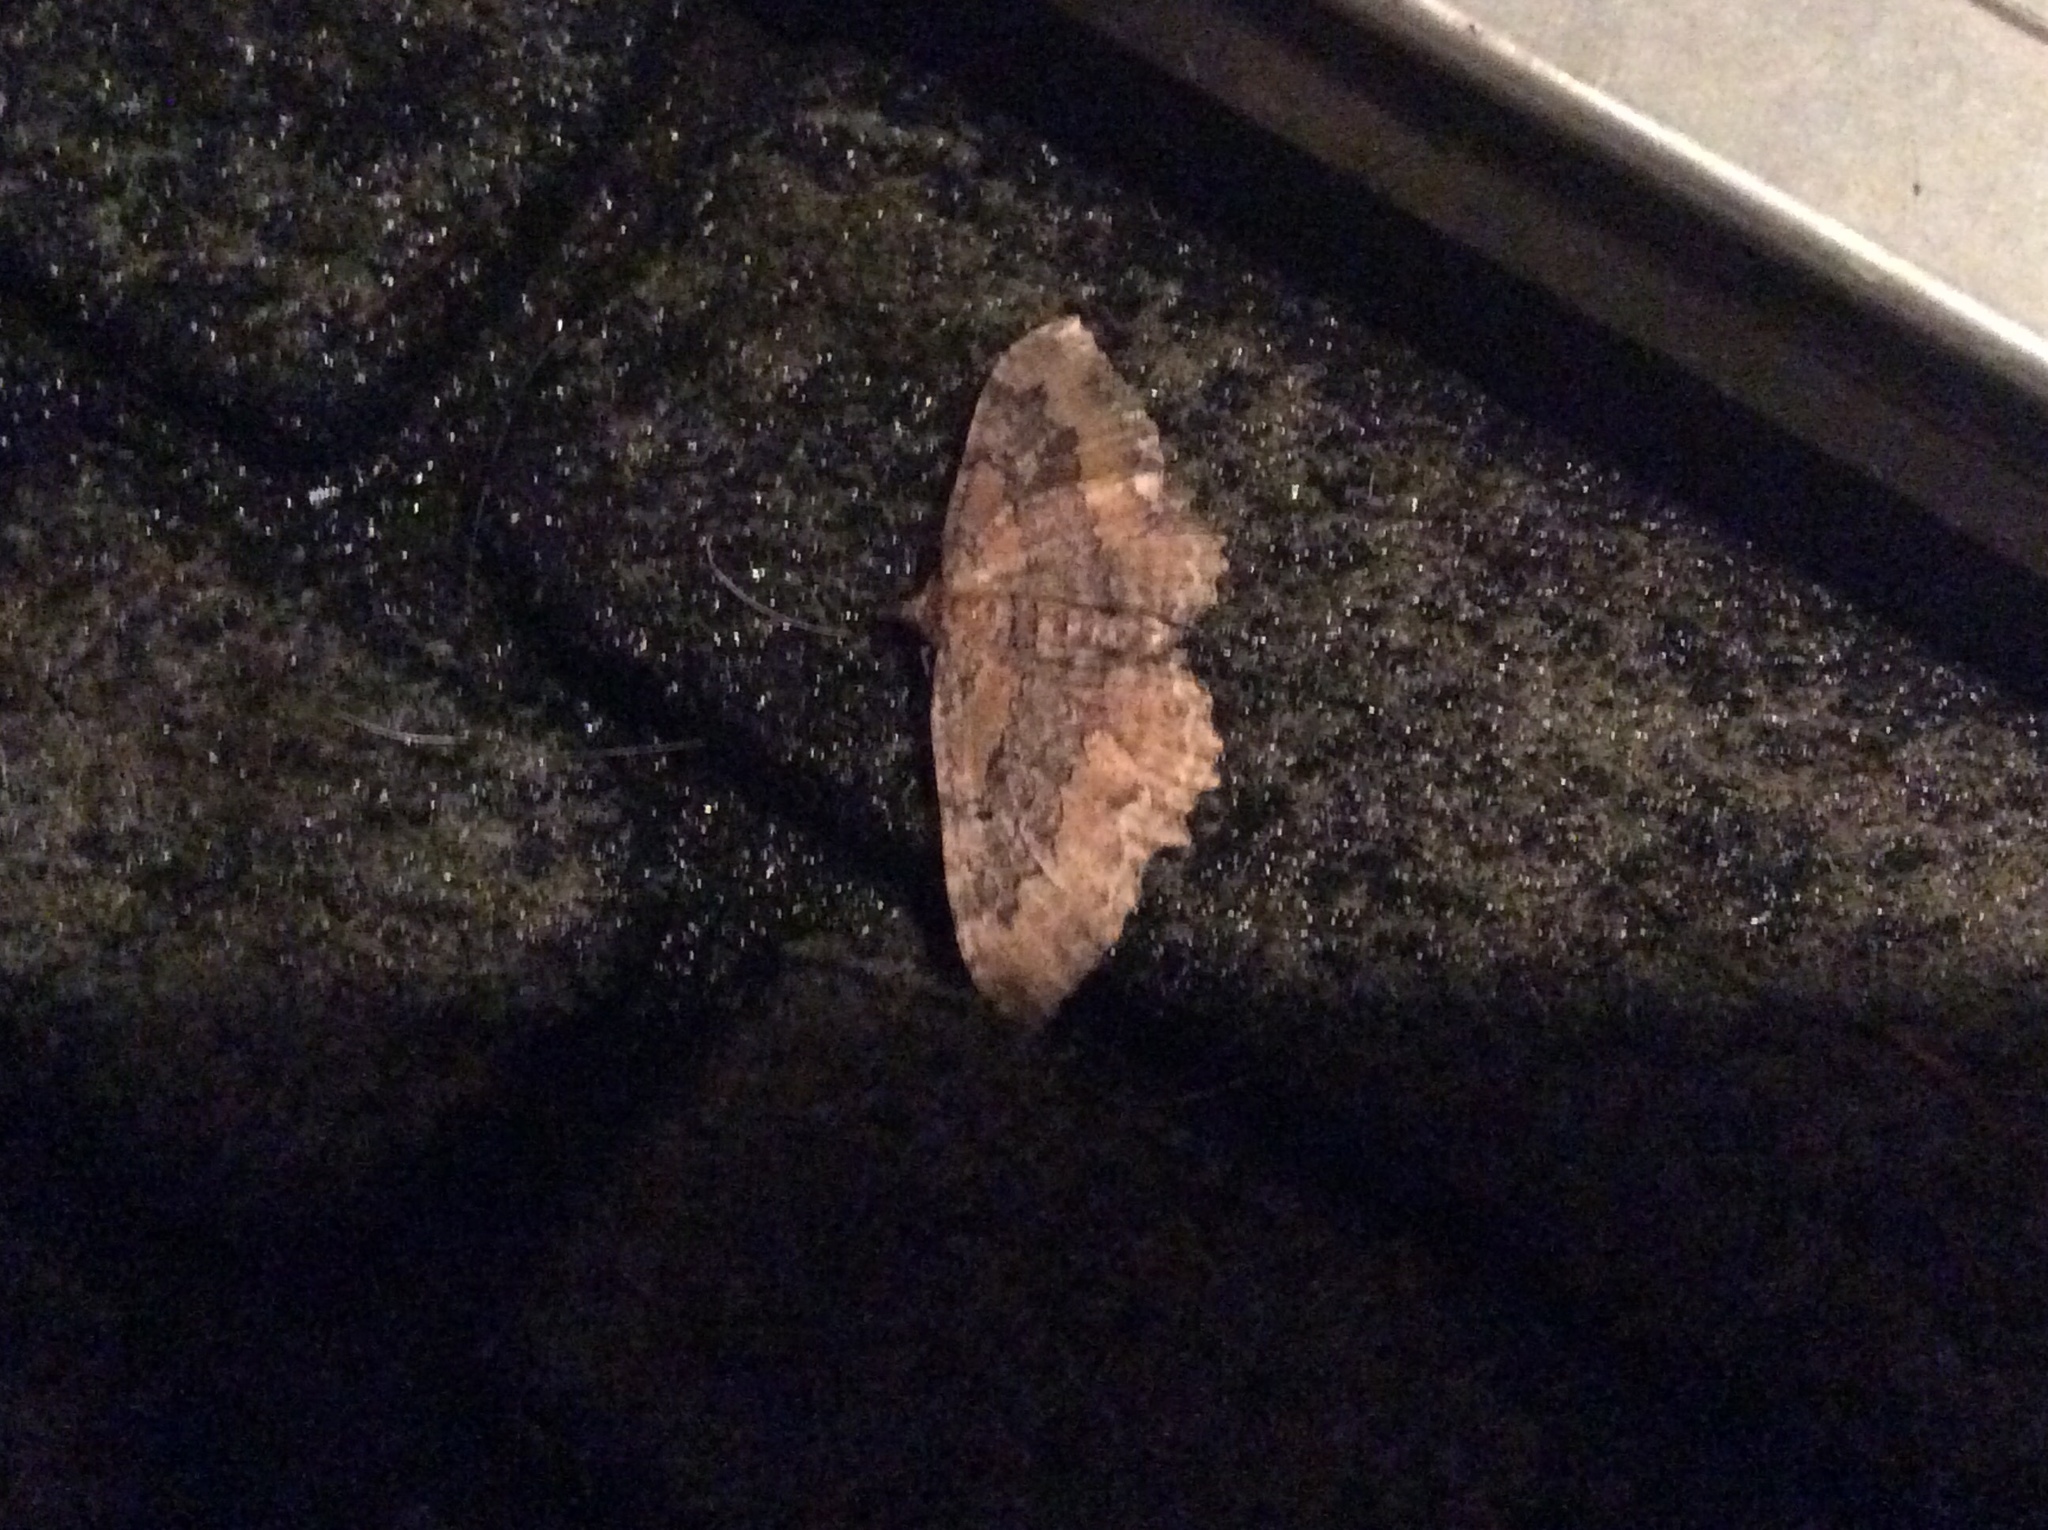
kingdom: Animalia
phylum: Arthropoda
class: Insecta
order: Lepidoptera
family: Geometridae
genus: Rheumaptera
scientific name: Rheumaptera
